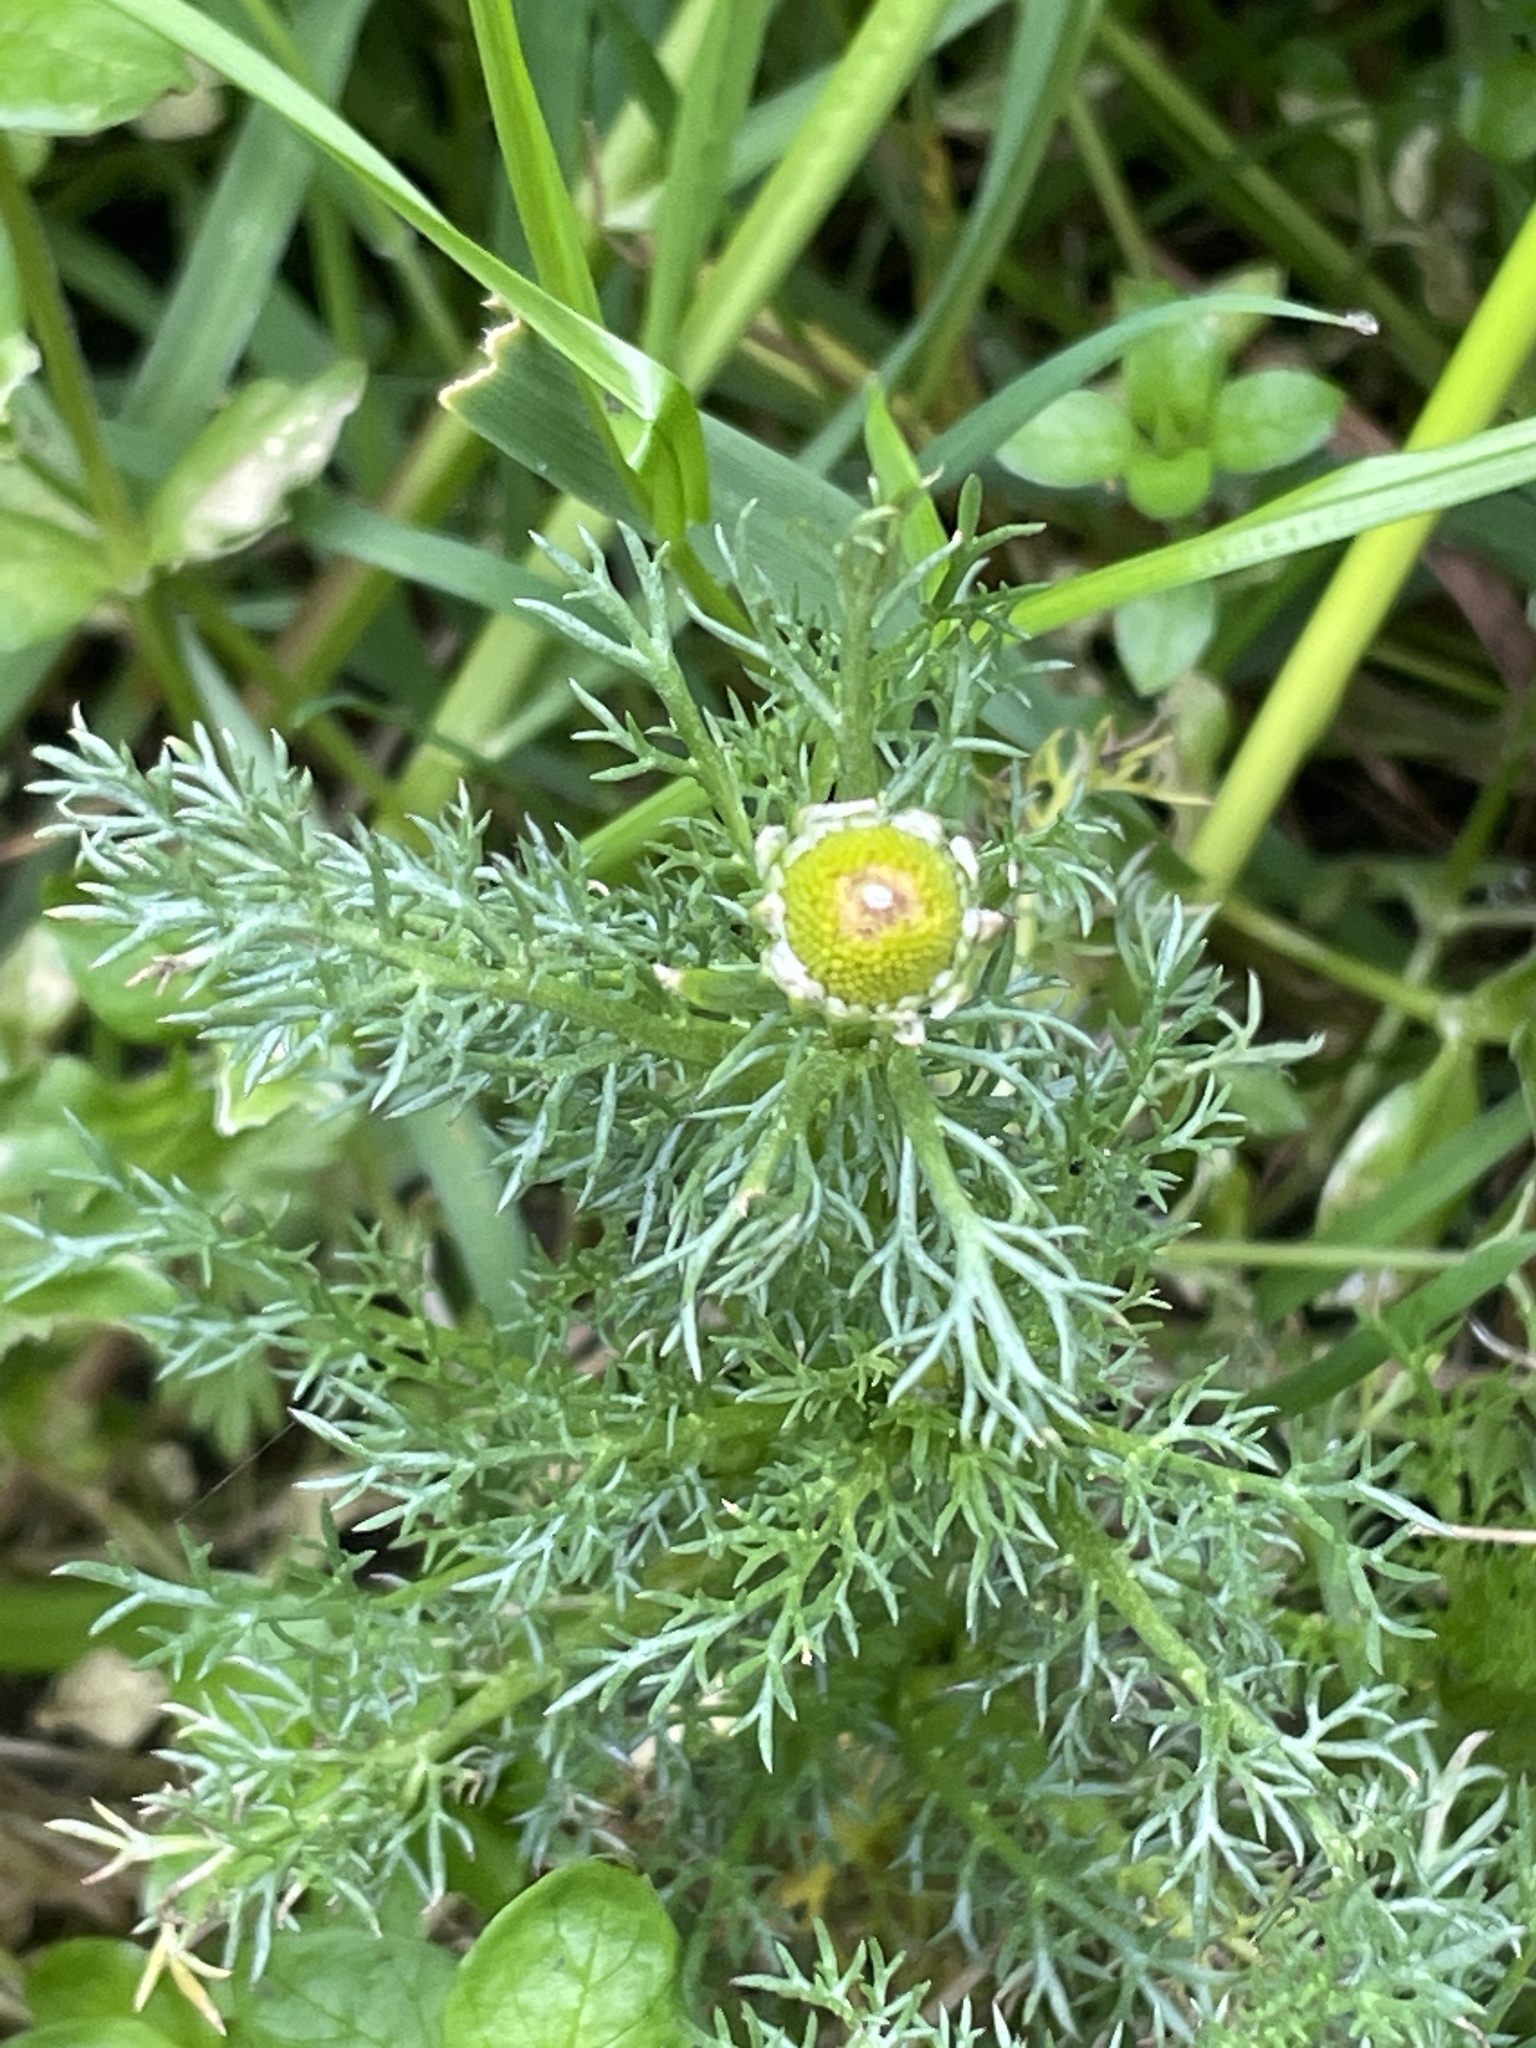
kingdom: Plantae
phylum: Tracheophyta
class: Magnoliopsida
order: Asterales
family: Asteraceae
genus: Matricaria
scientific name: Matricaria discoidea
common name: Disc mayweed
